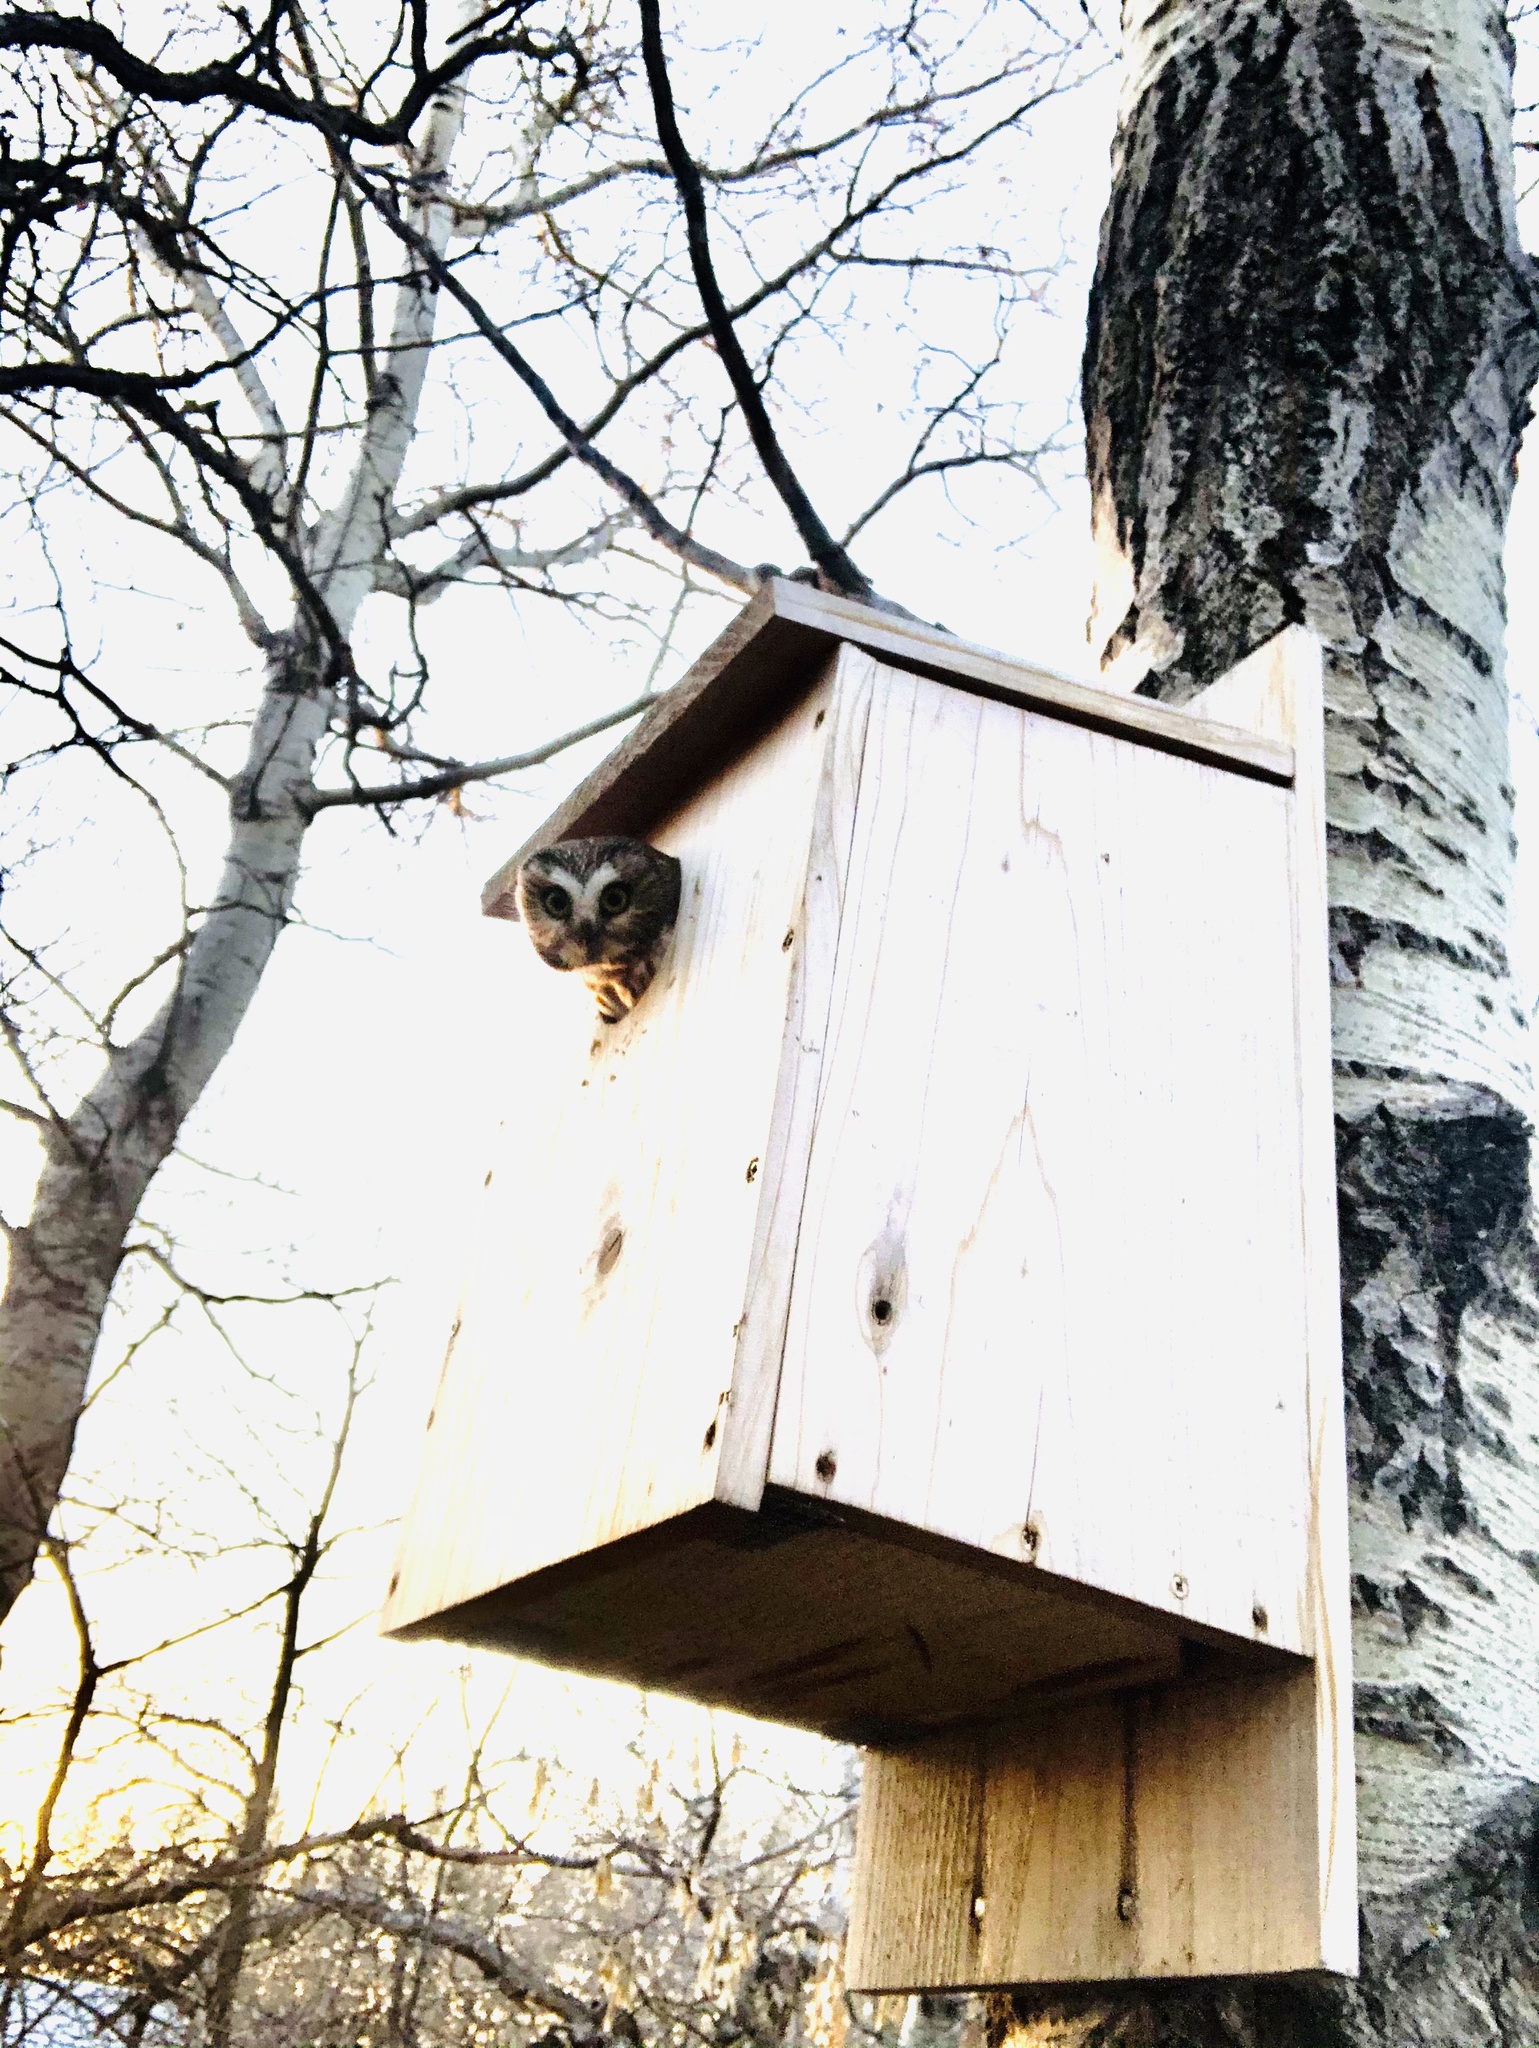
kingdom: Animalia
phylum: Chordata
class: Aves
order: Strigiformes
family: Strigidae
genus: Aegolius
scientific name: Aegolius acadicus
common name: Northern saw-whet owl
